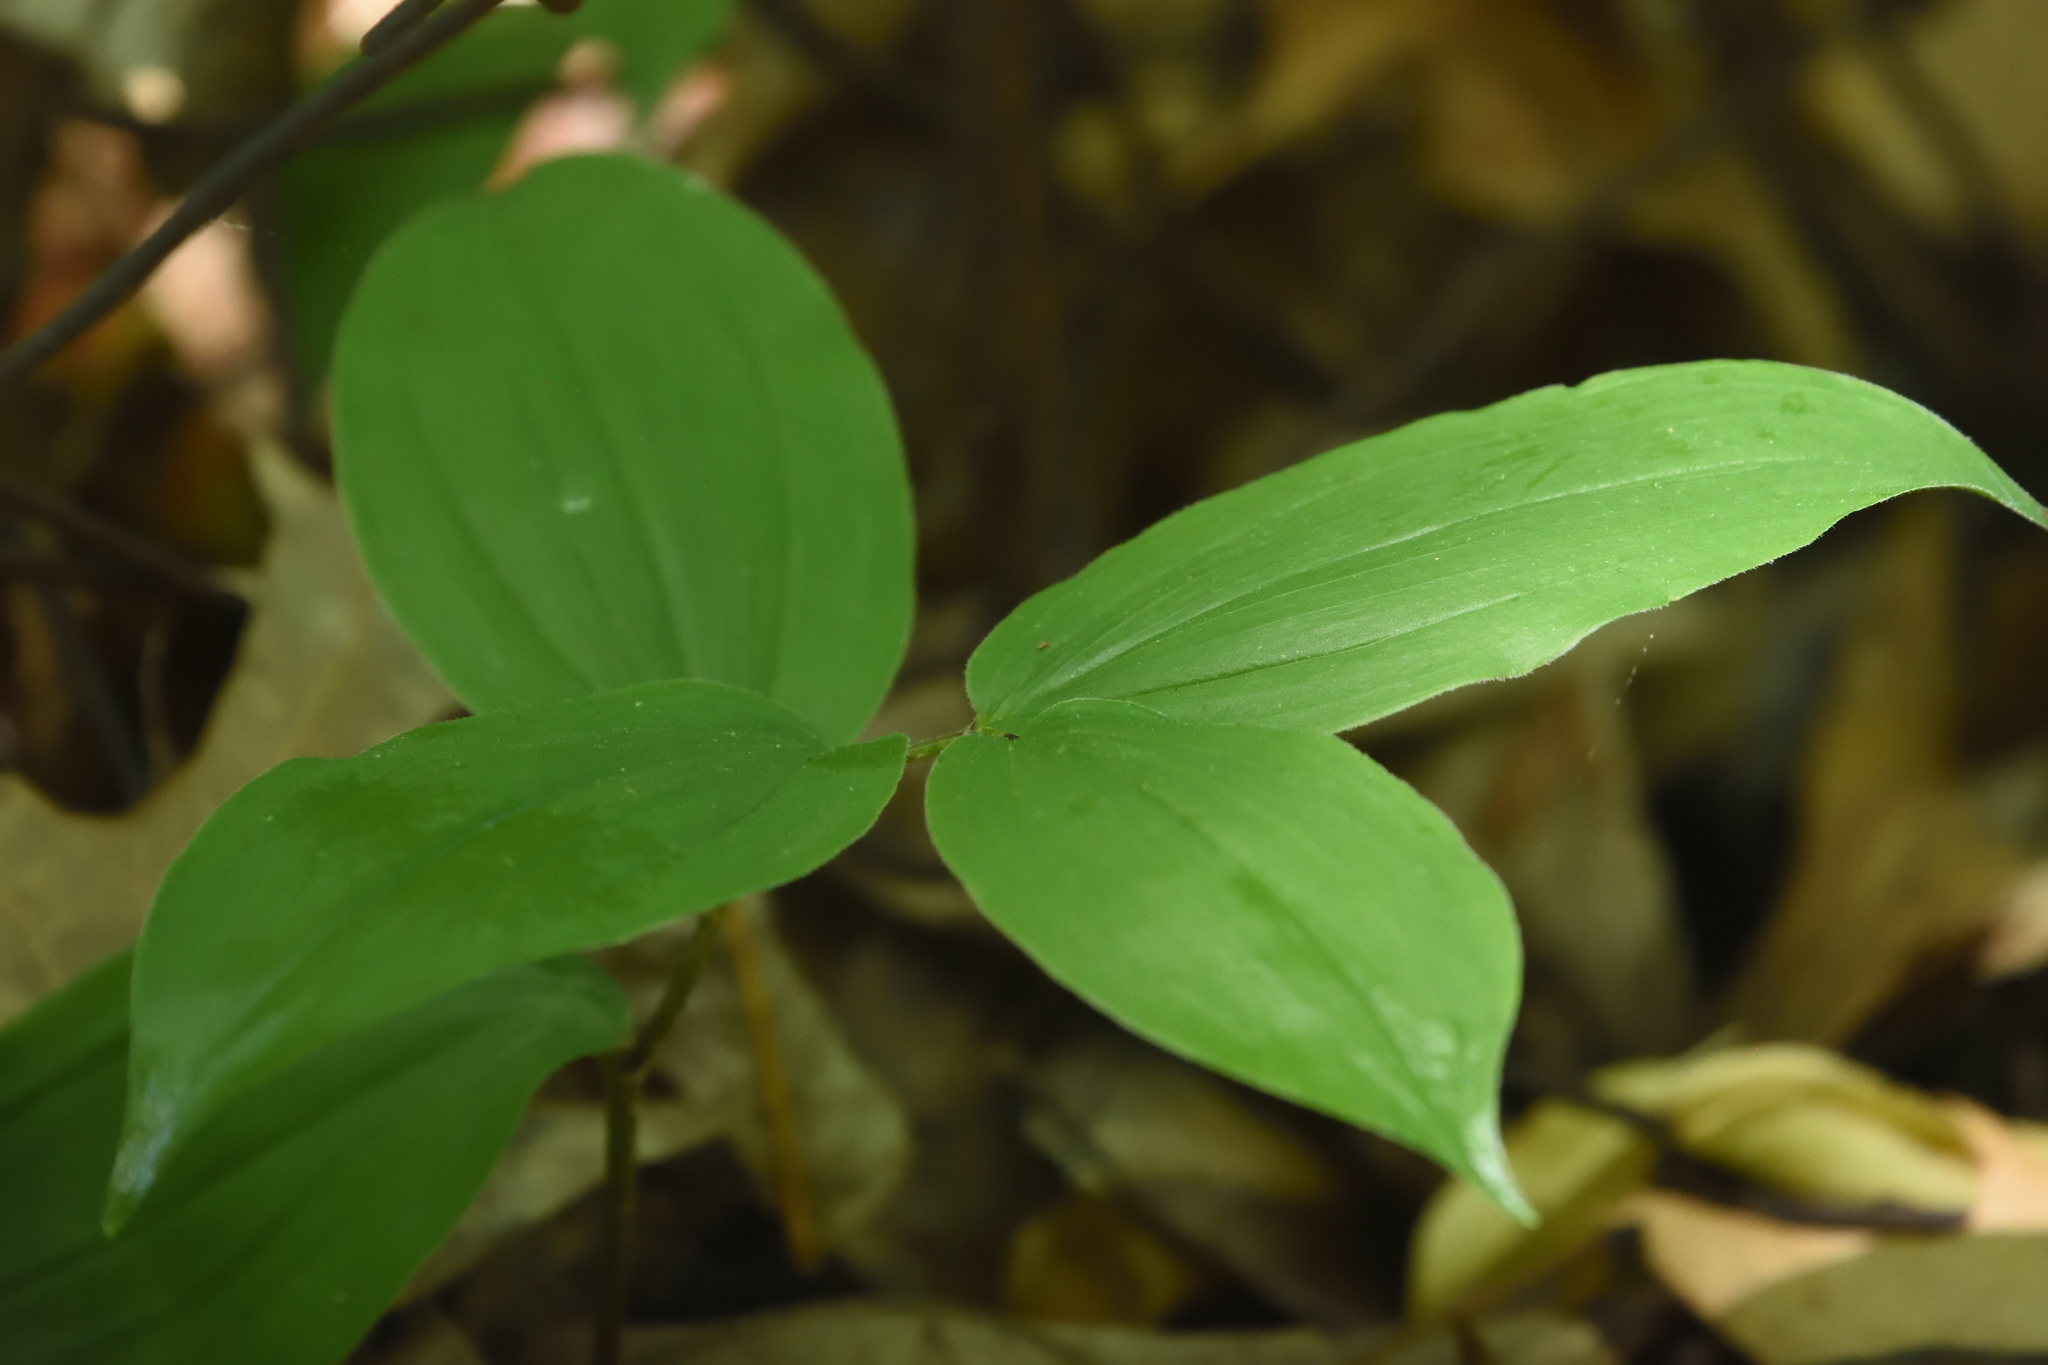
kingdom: Plantae
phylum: Tracheophyta
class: Liliopsida
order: Asparagales
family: Asparagaceae
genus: Maianthemum
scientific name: Maianthemum racemosum
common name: False spikenard
